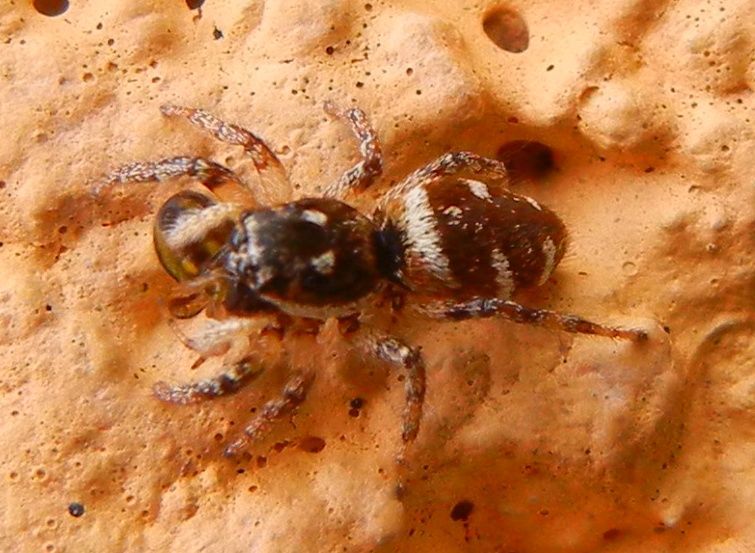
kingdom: Animalia
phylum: Arthropoda
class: Arachnida
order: Araneae
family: Salticidae
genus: Salticus
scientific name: Salticus scenicus
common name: Zebra jumper
